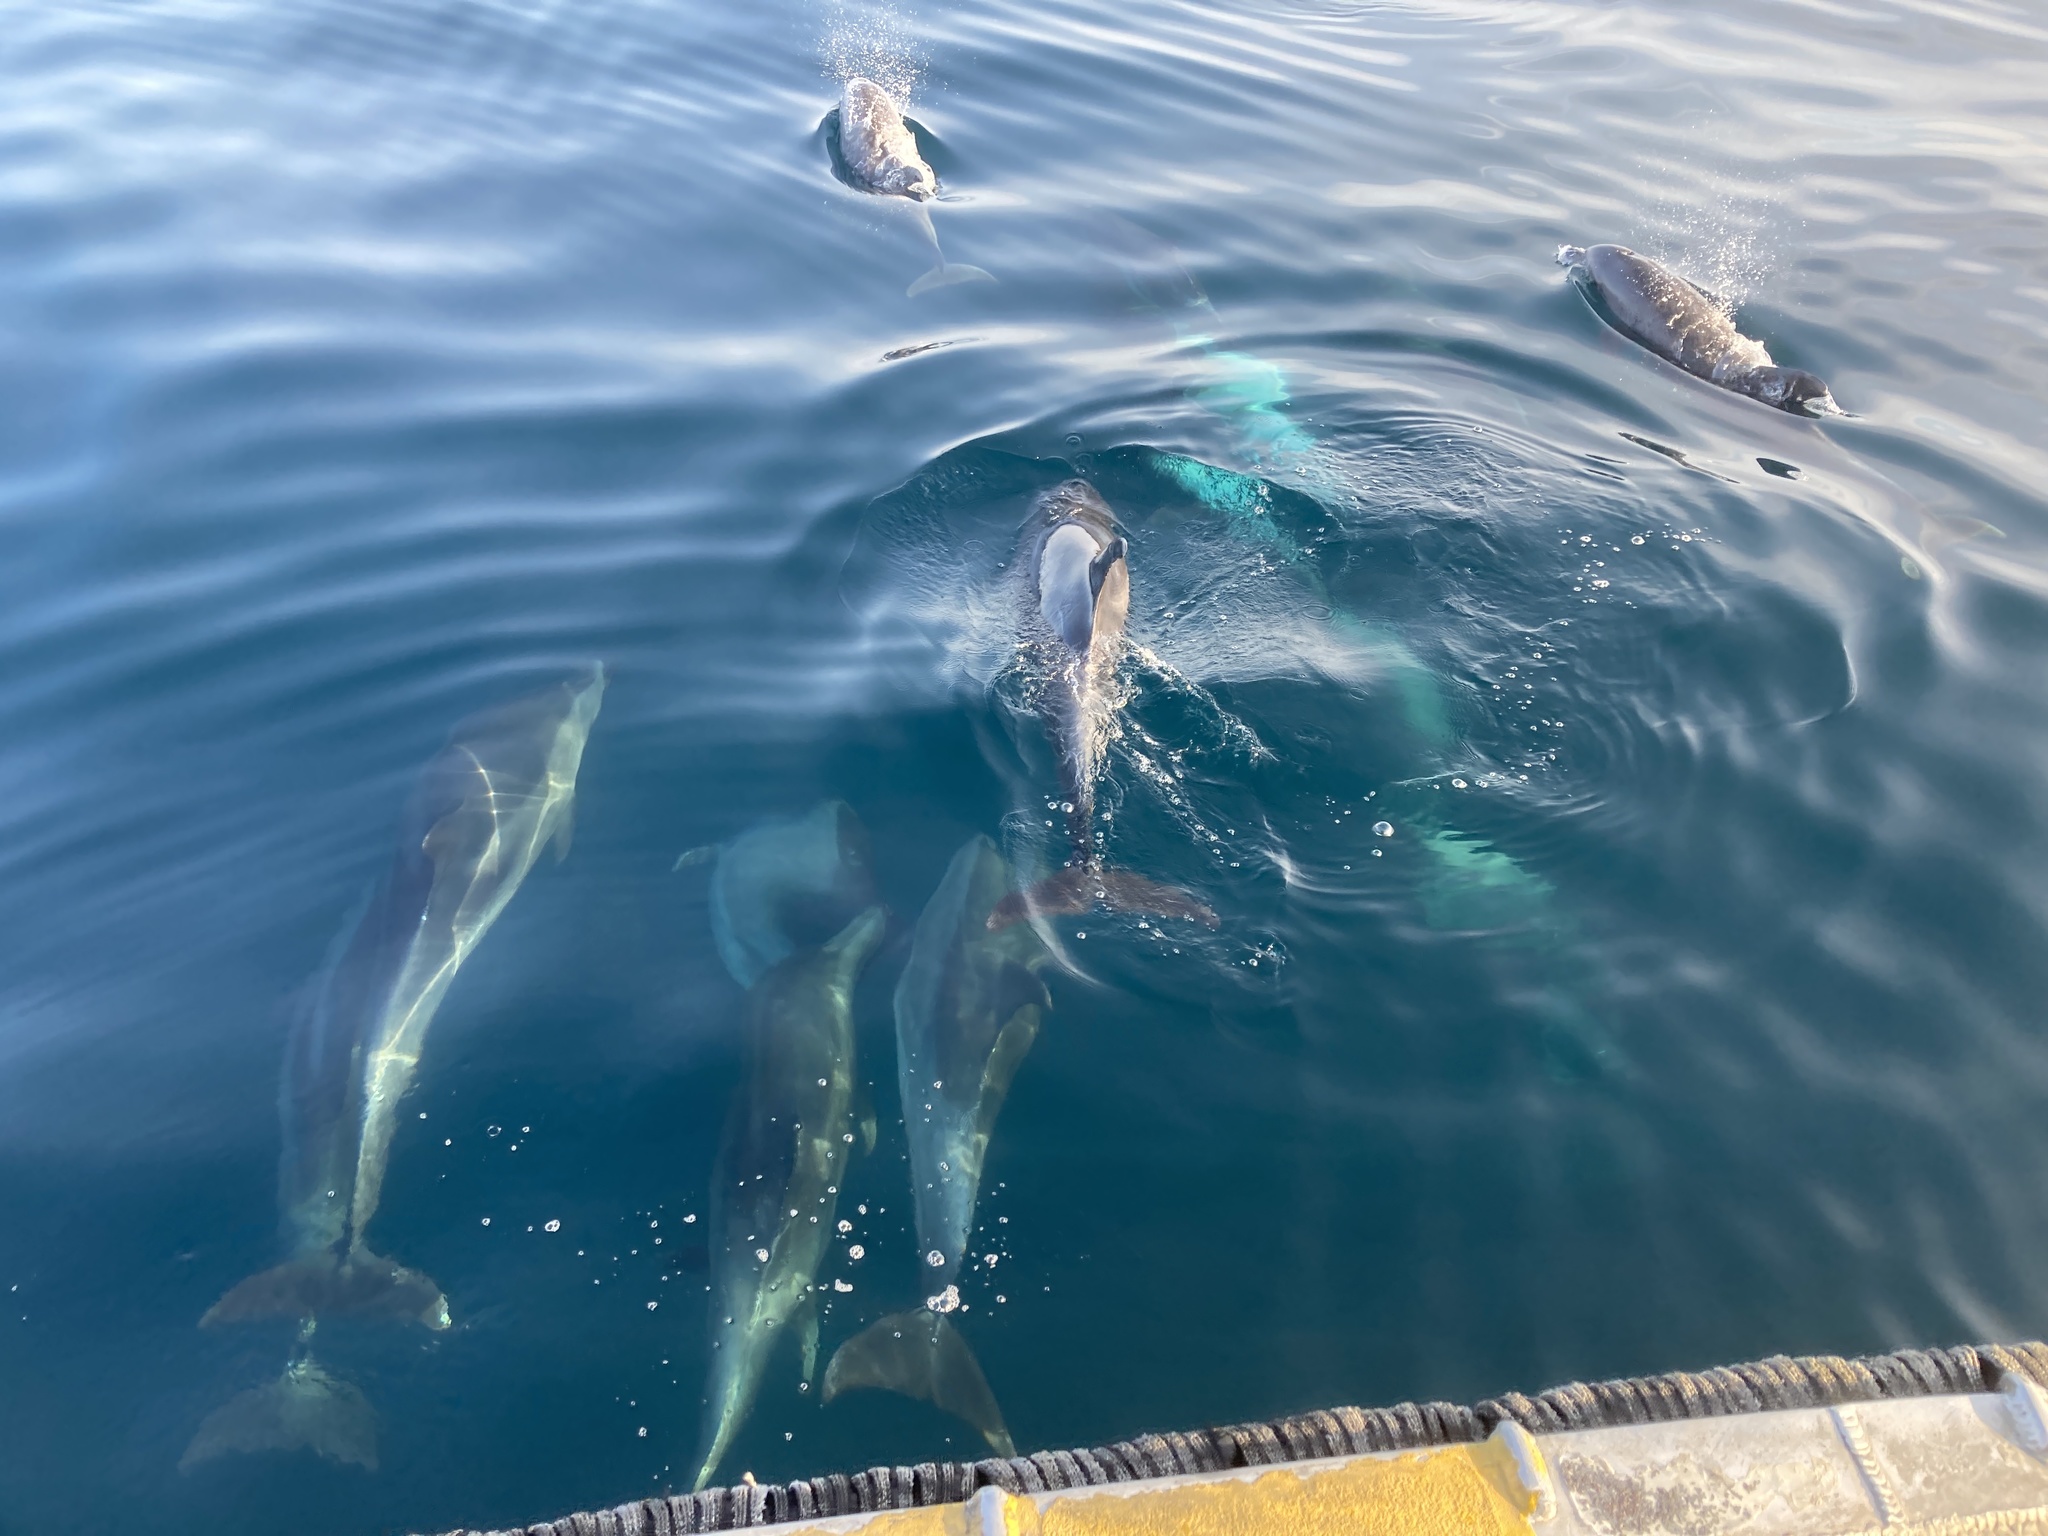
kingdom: Animalia
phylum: Chordata
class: Mammalia
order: Cetacea
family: Delphinidae
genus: Tursiops
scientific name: Tursiops truncatus
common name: Bottlenose dolphin
